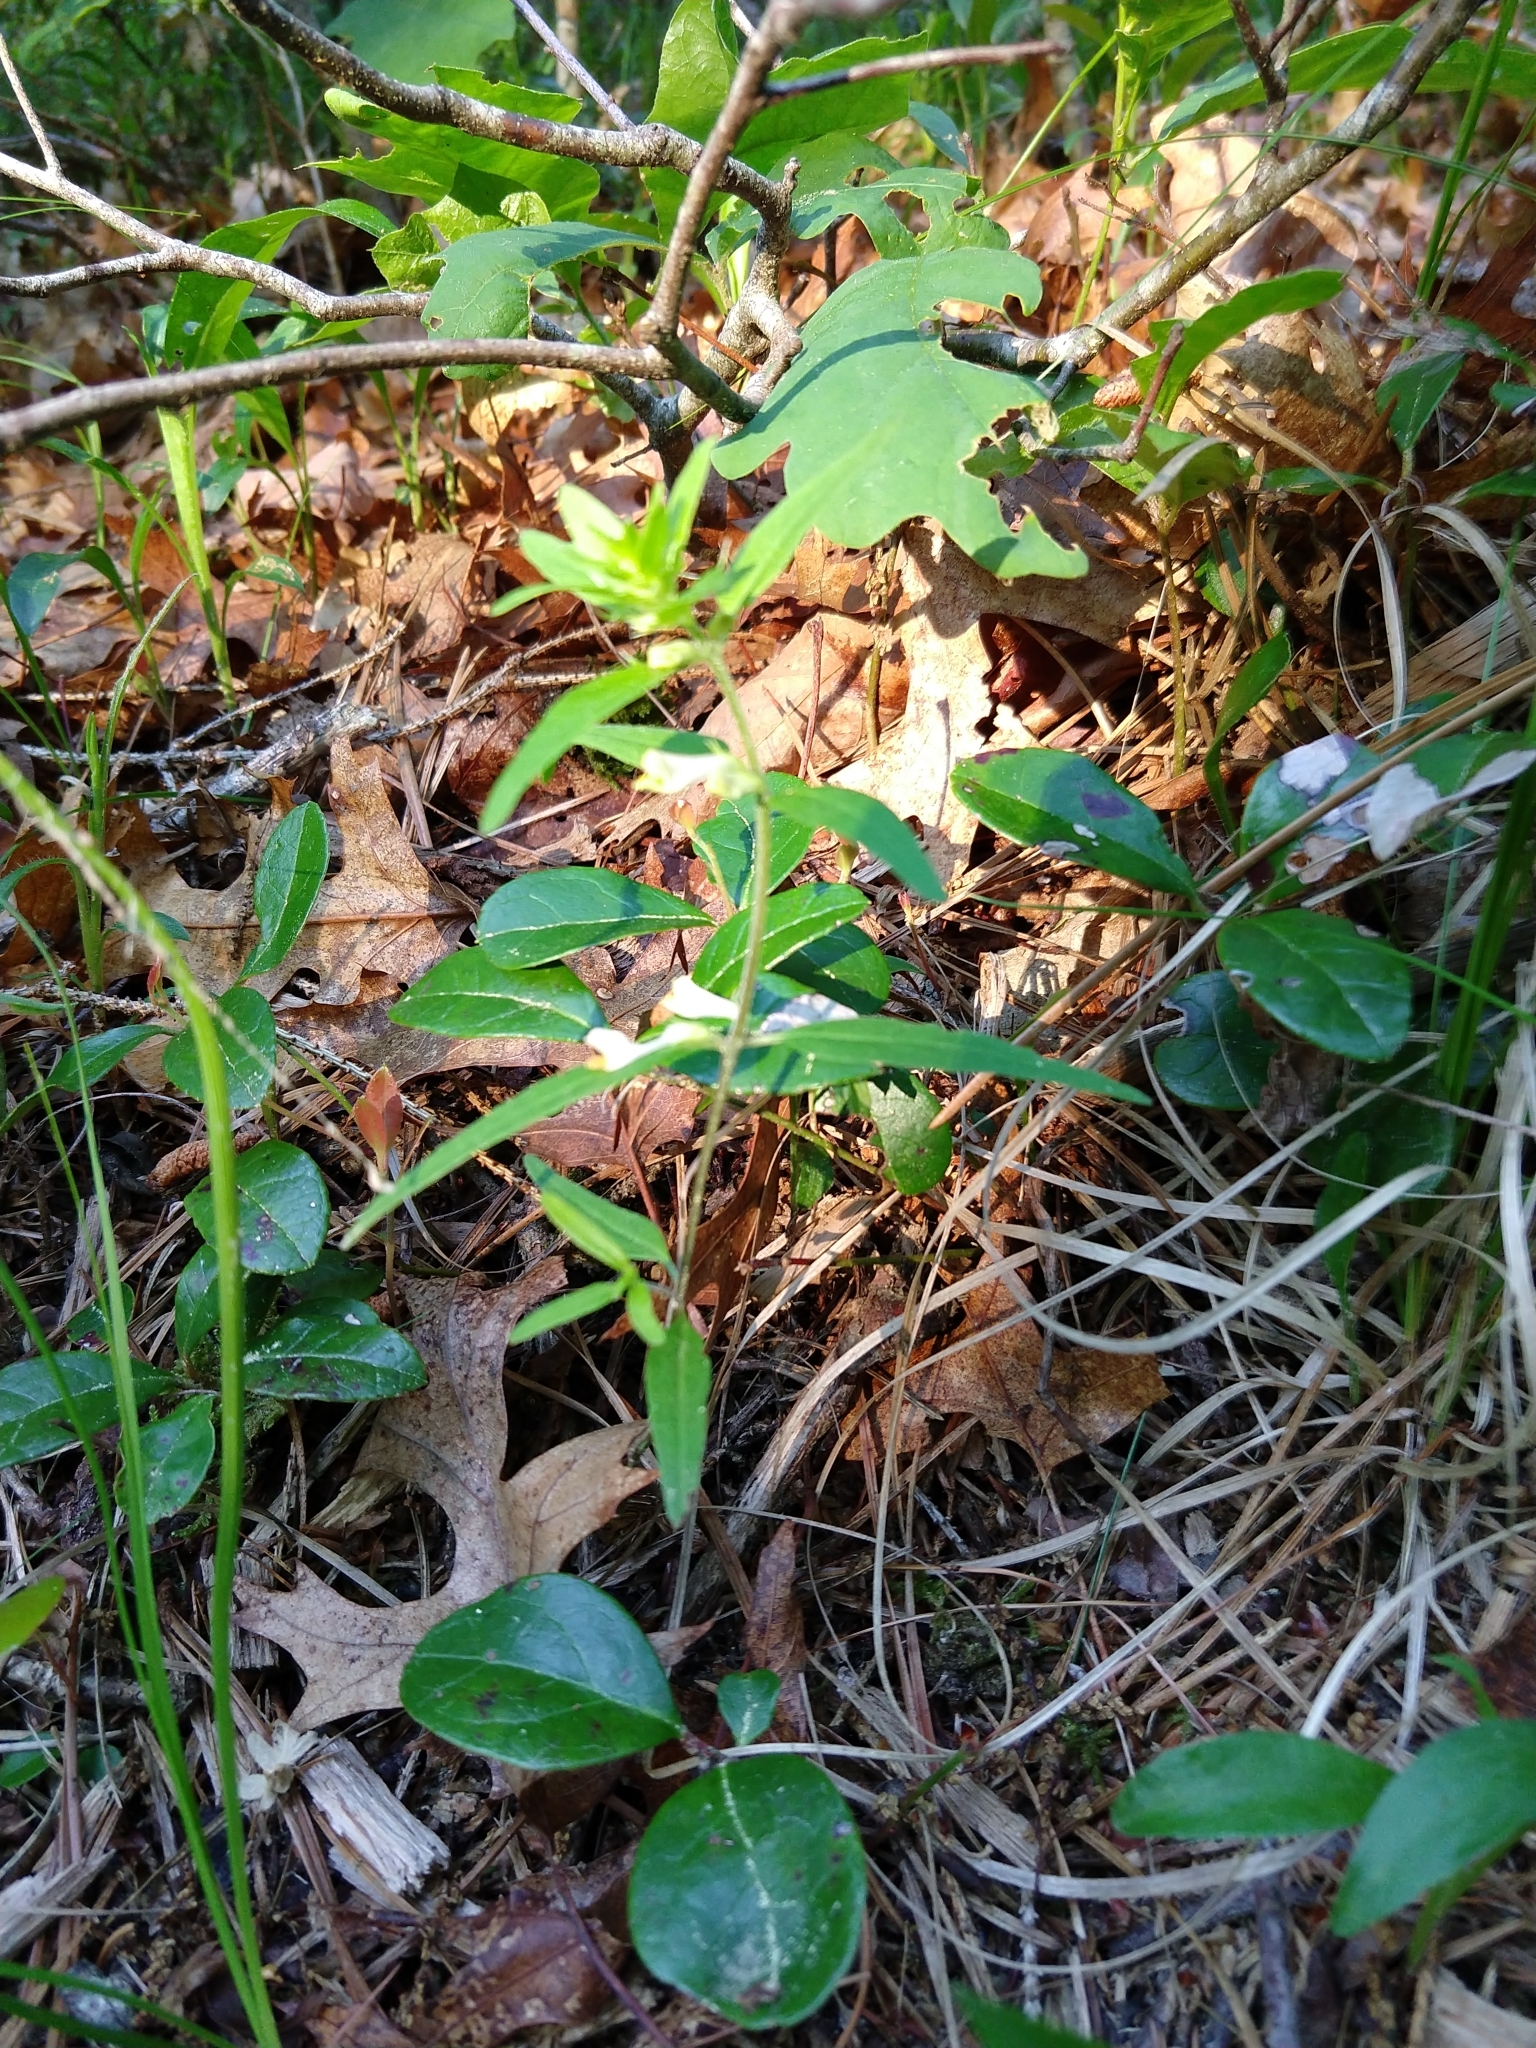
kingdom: Plantae
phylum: Tracheophyta
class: Magnoliopsida
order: Lamiales
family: Orobanchaceae
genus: Melampyrum
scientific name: Melampyrum lineare
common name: American cow-wheat
